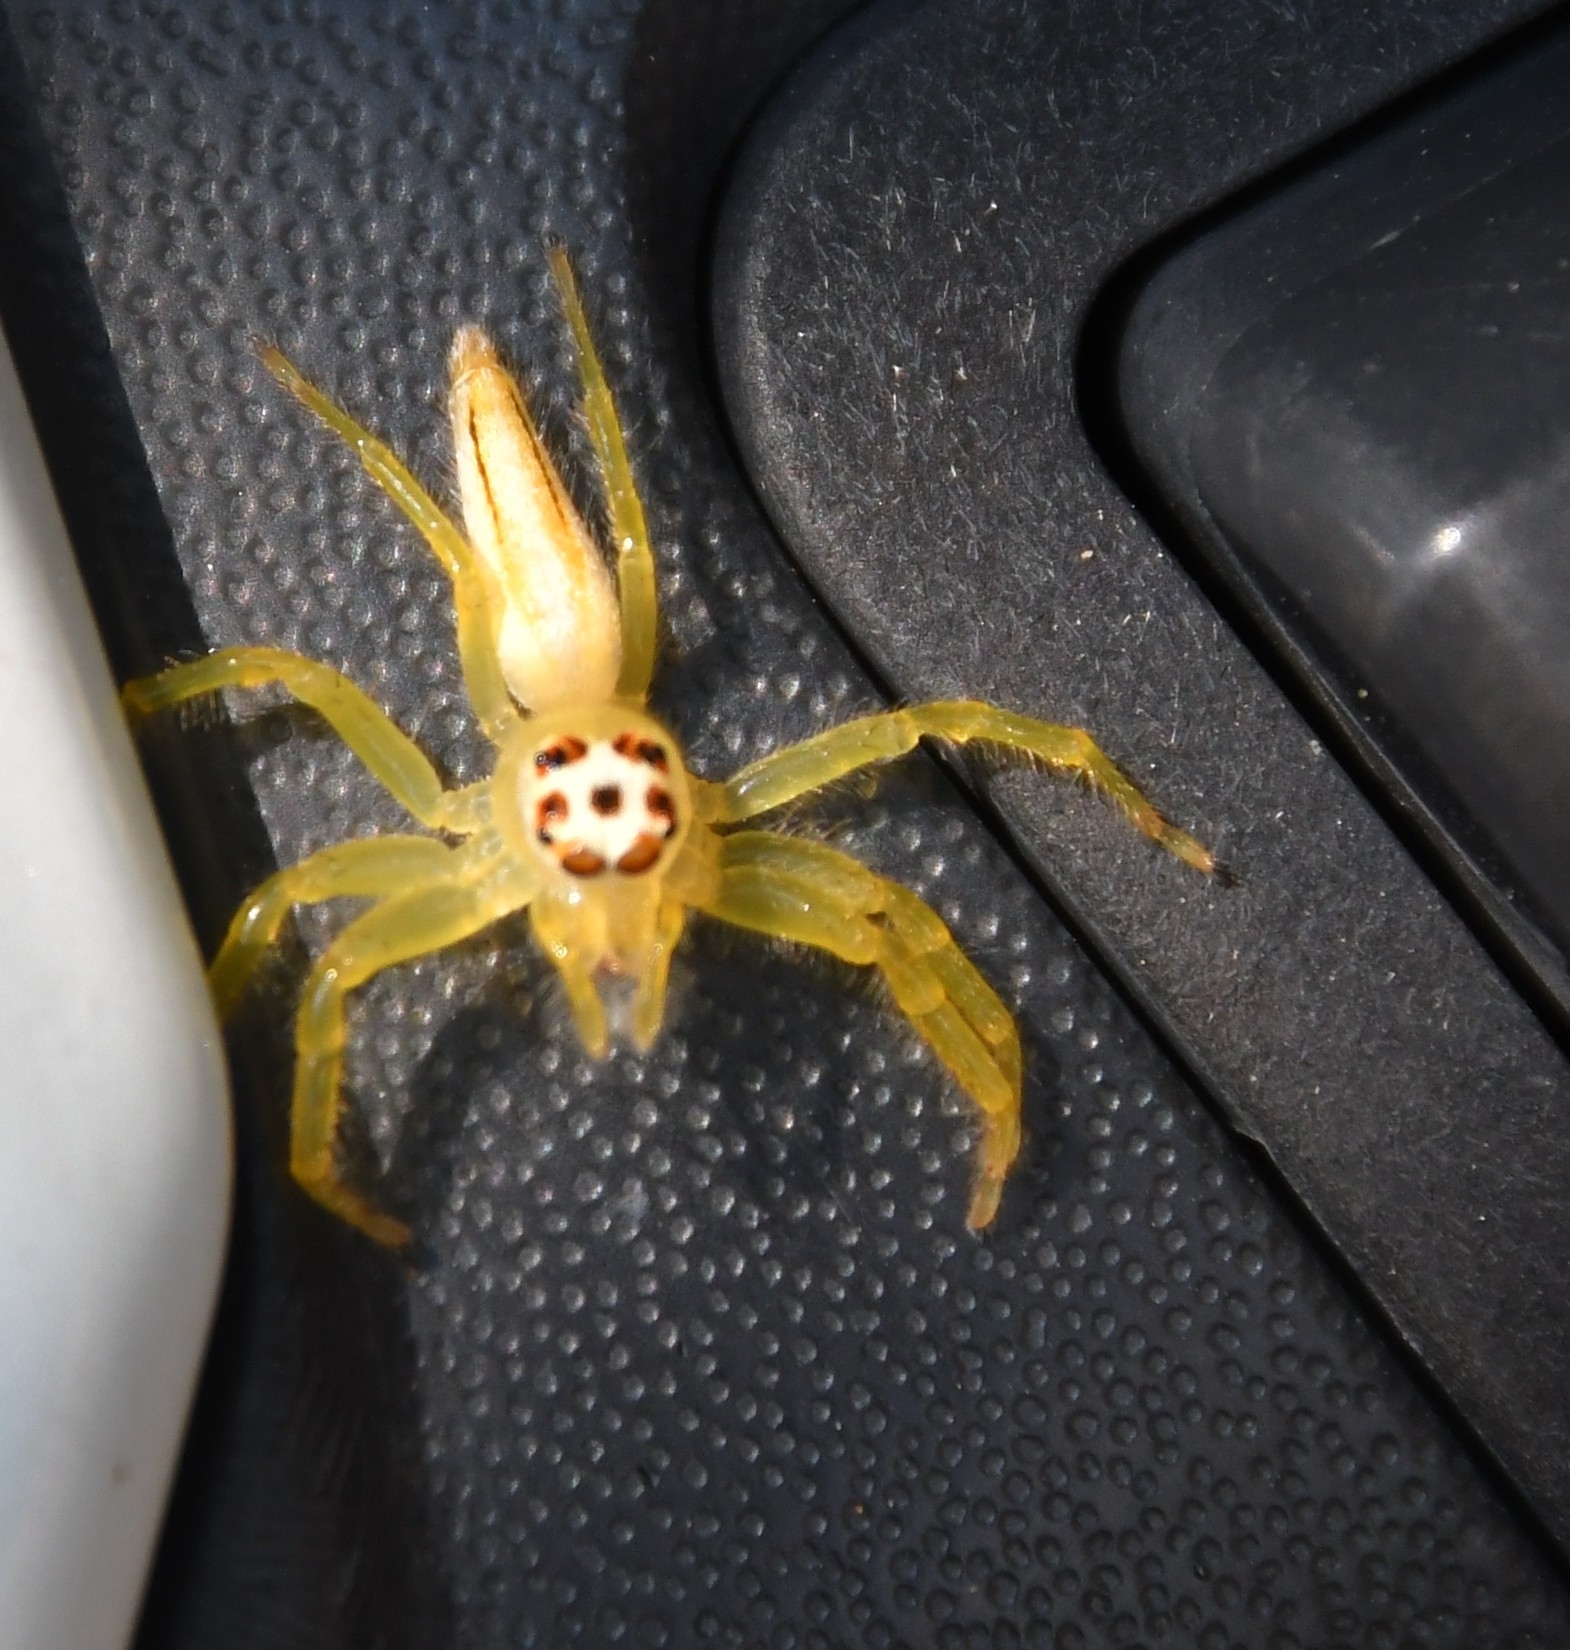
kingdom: Animalia
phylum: Arthropoda
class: Arachnida
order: Araneae
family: Salticidae
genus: Telamonia
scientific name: Telamonia dimidiata
